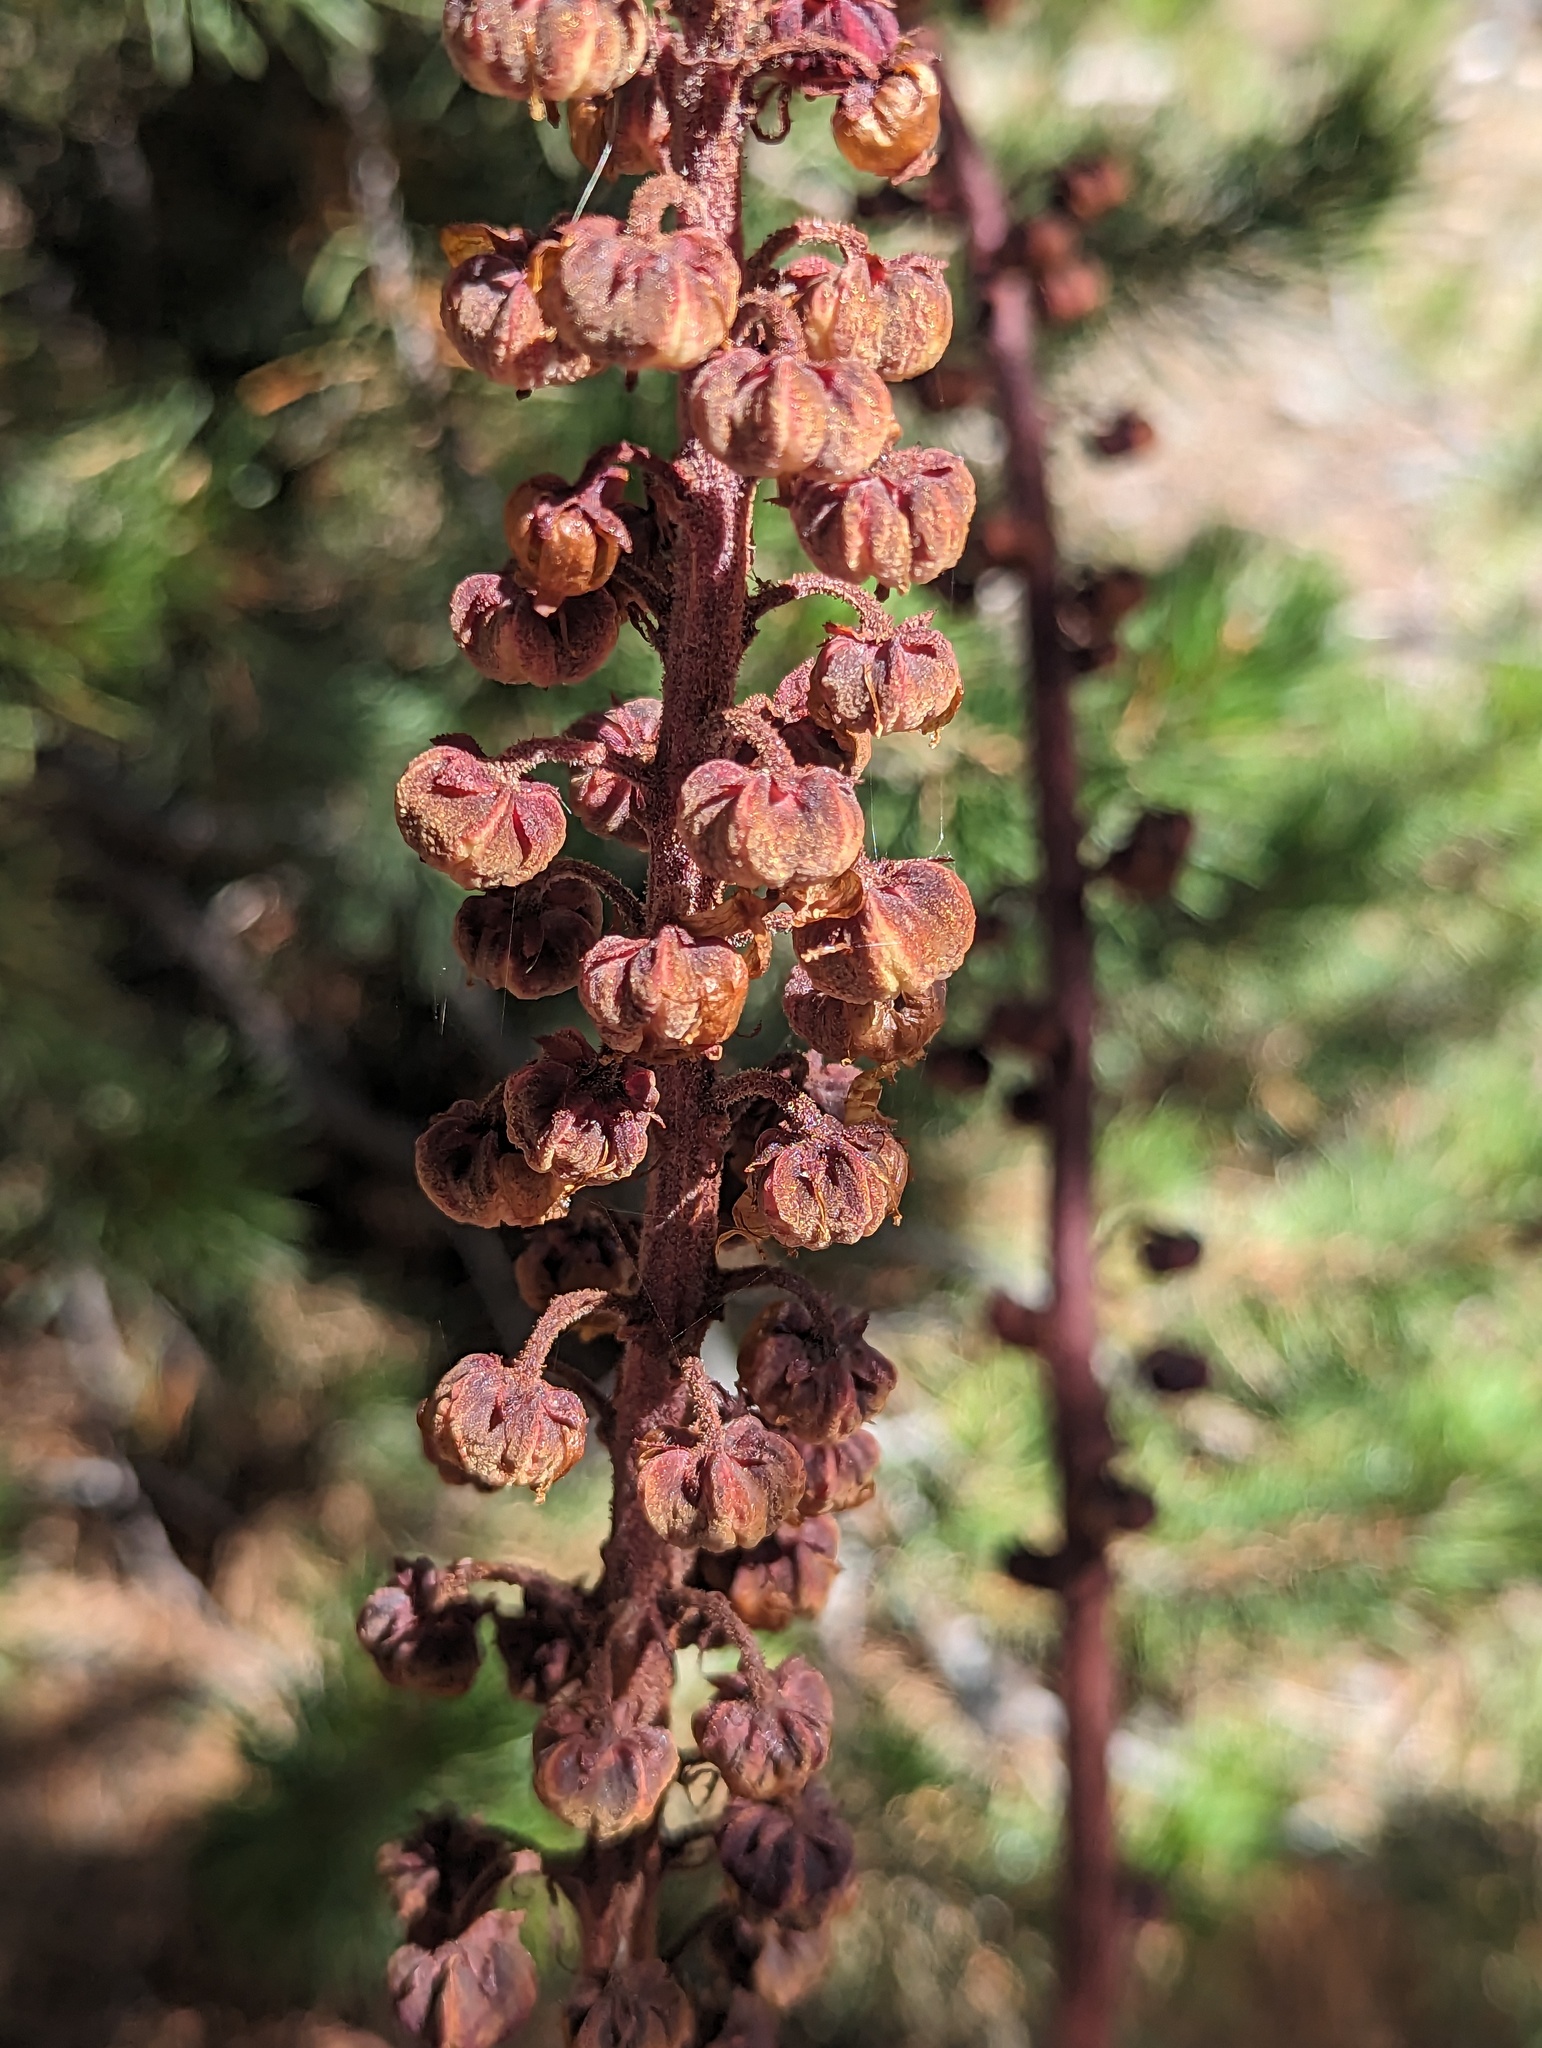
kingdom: Plantae
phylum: Tracheophyta
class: Magnoliopsida
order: Ericales
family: Ericaceae
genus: Pterospora
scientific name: Pterospora andromedea
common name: Giant bird's-nest
